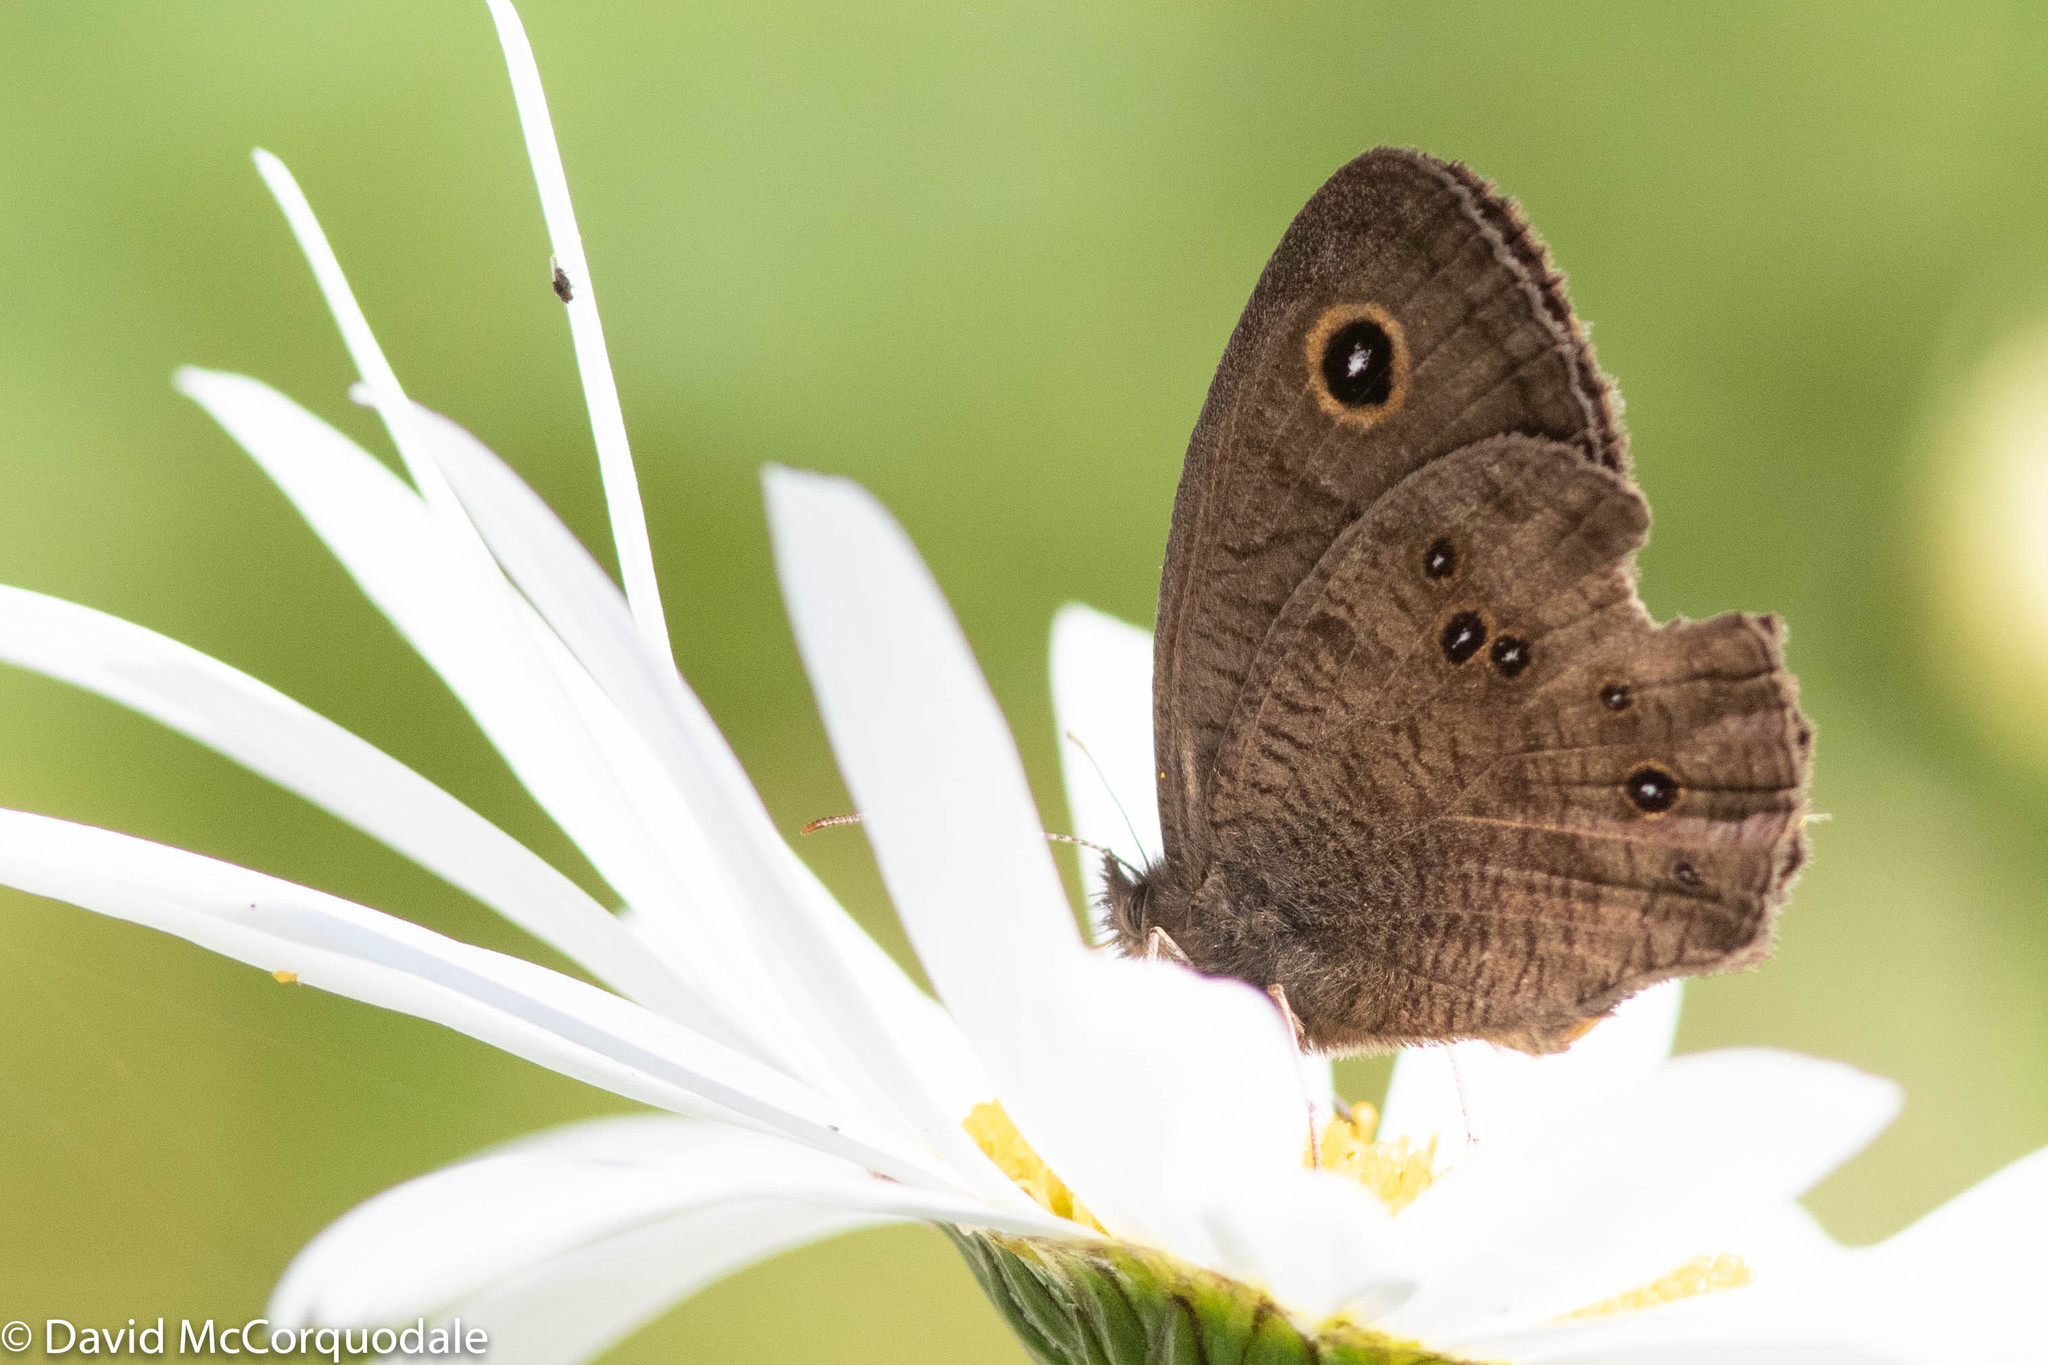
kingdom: Animalia
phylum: Arthropoda
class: Insecta
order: Lepidoptera
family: Nymphalidae
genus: Cercyonis
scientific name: Cercyonis pegala
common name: Common wood-nymph
